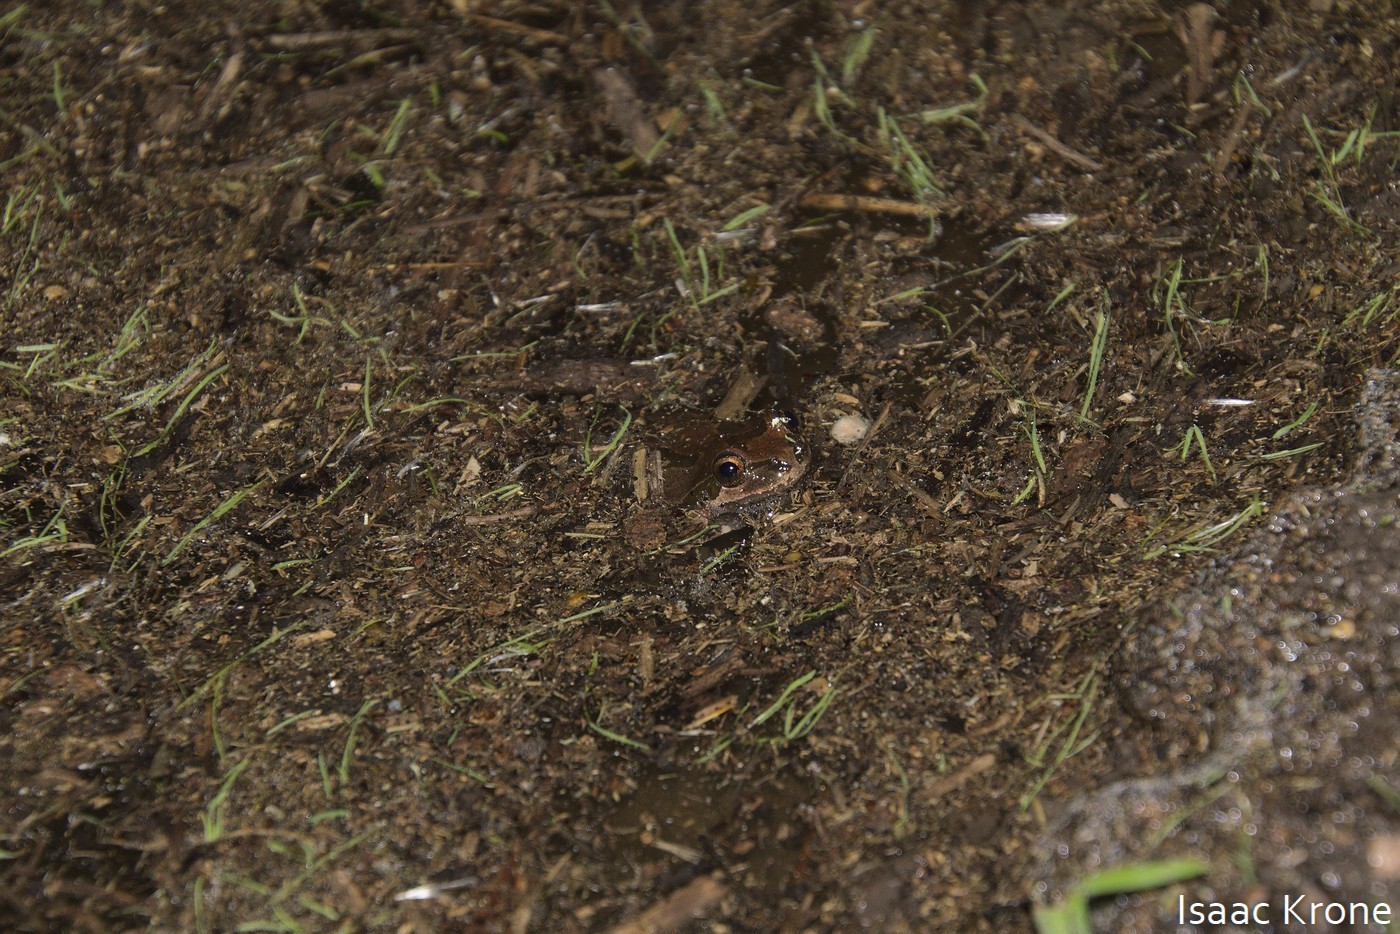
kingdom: Animalia
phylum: Chordata
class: Amphibia
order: Anura
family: Hylidae
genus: Pseudacris
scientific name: Pseudacris regilla
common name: Pacific chorus frog
